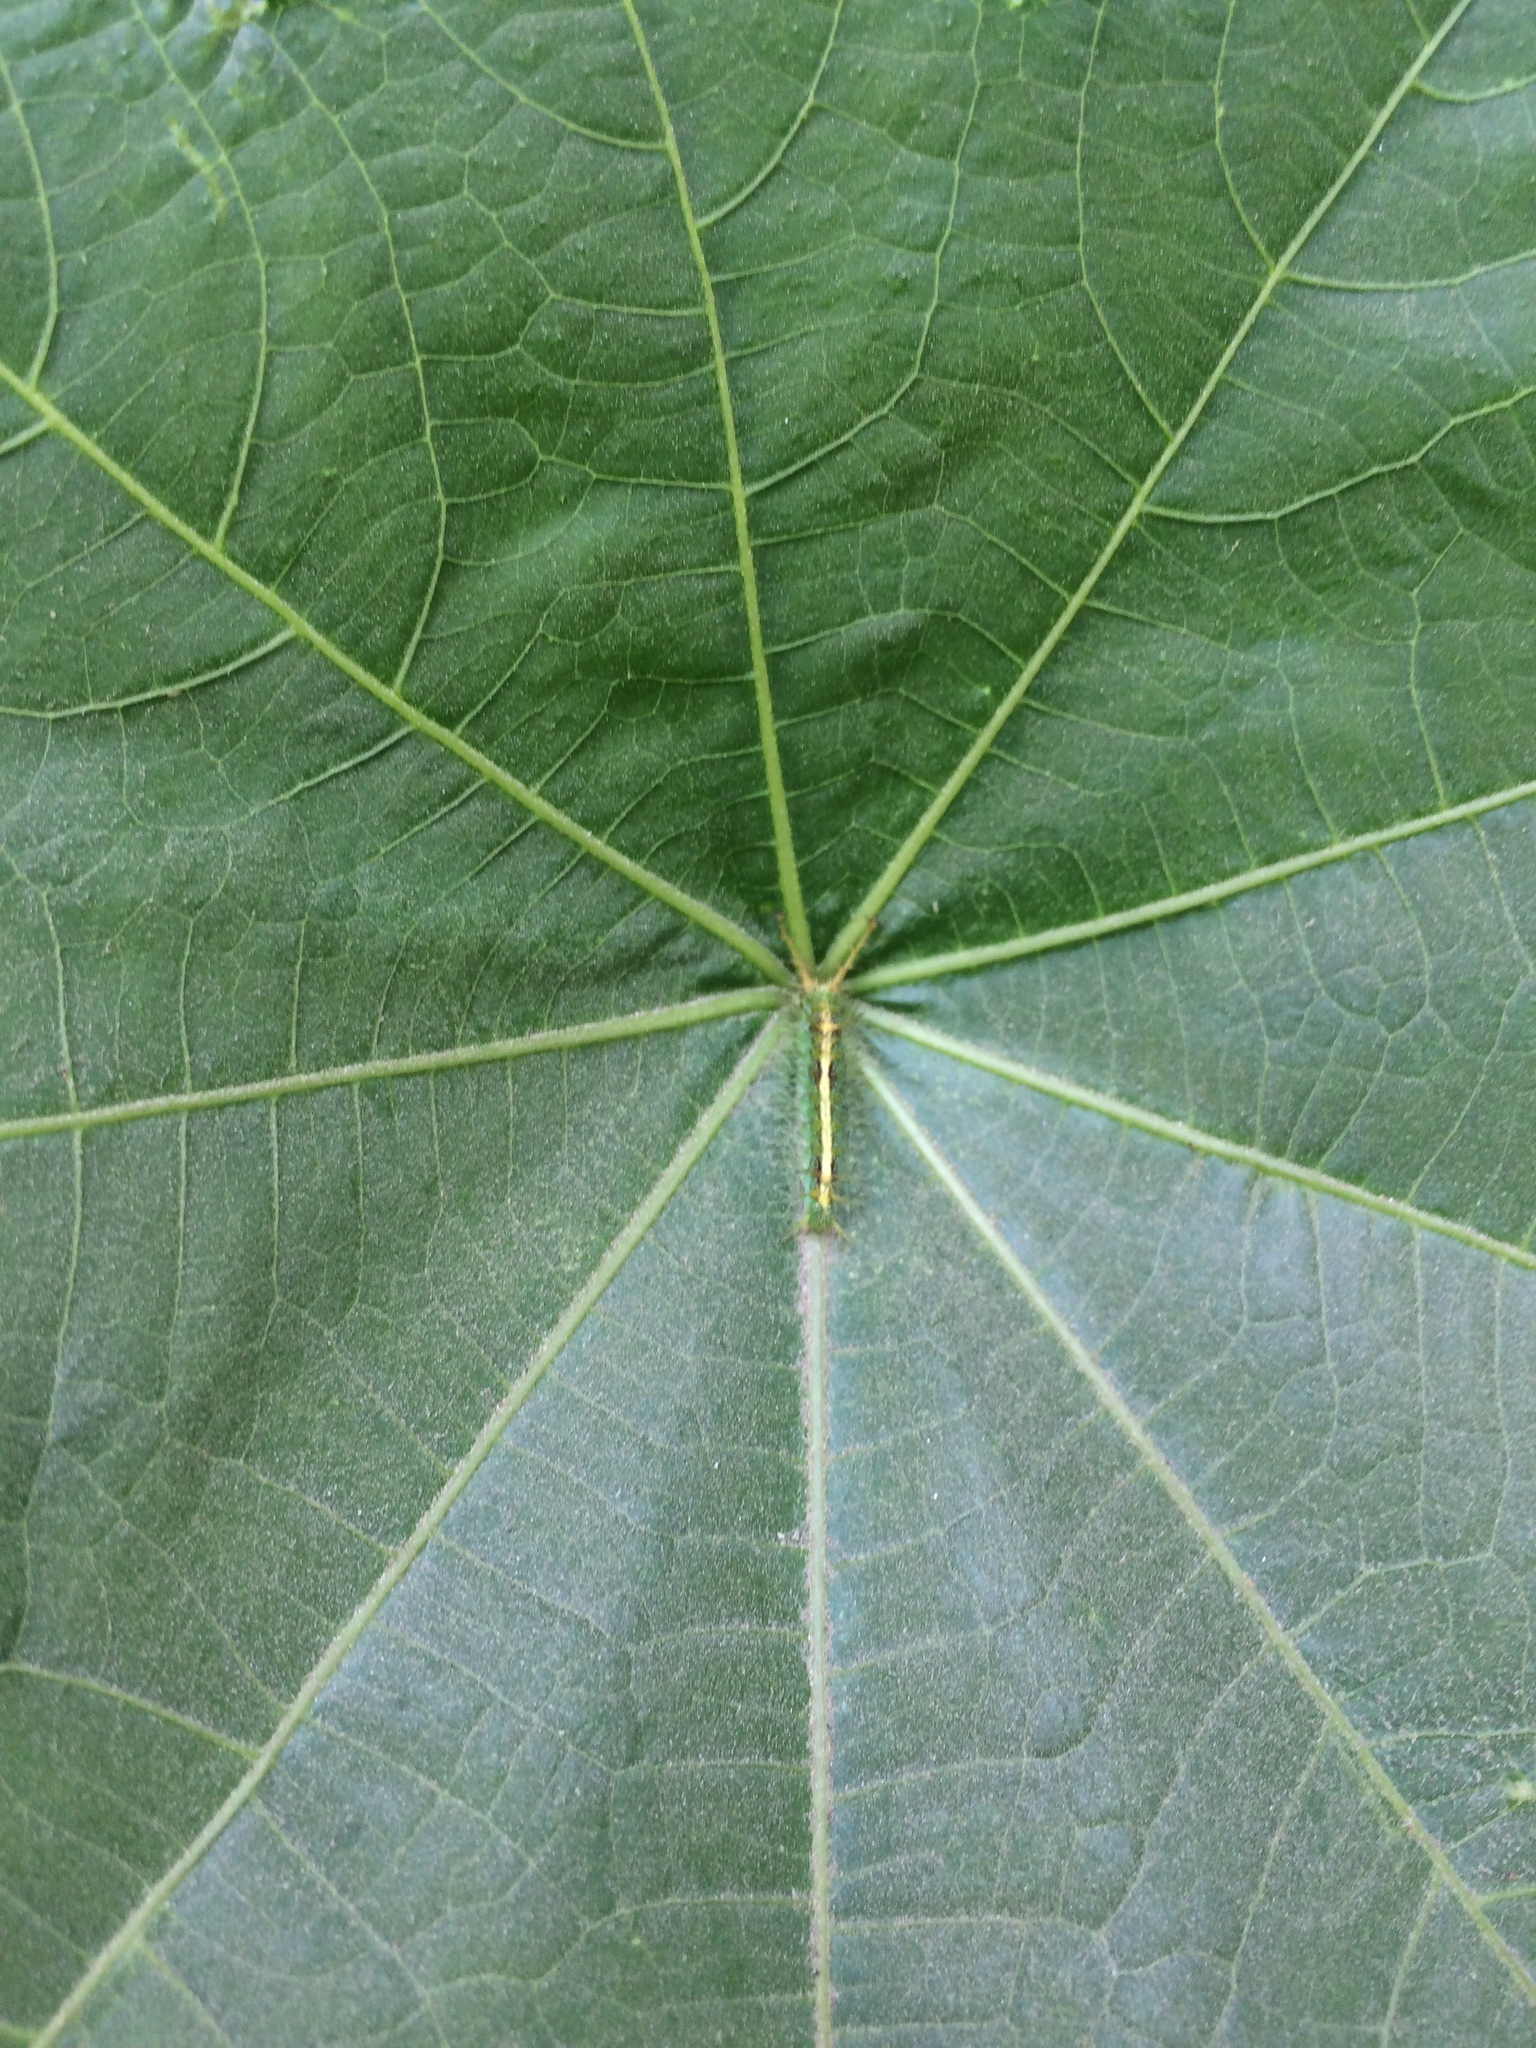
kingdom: Animalia
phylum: Arthropoda
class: Insecta
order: Lepidoptera
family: Nymphalidae
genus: Ariadne
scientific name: Ariadne merione
